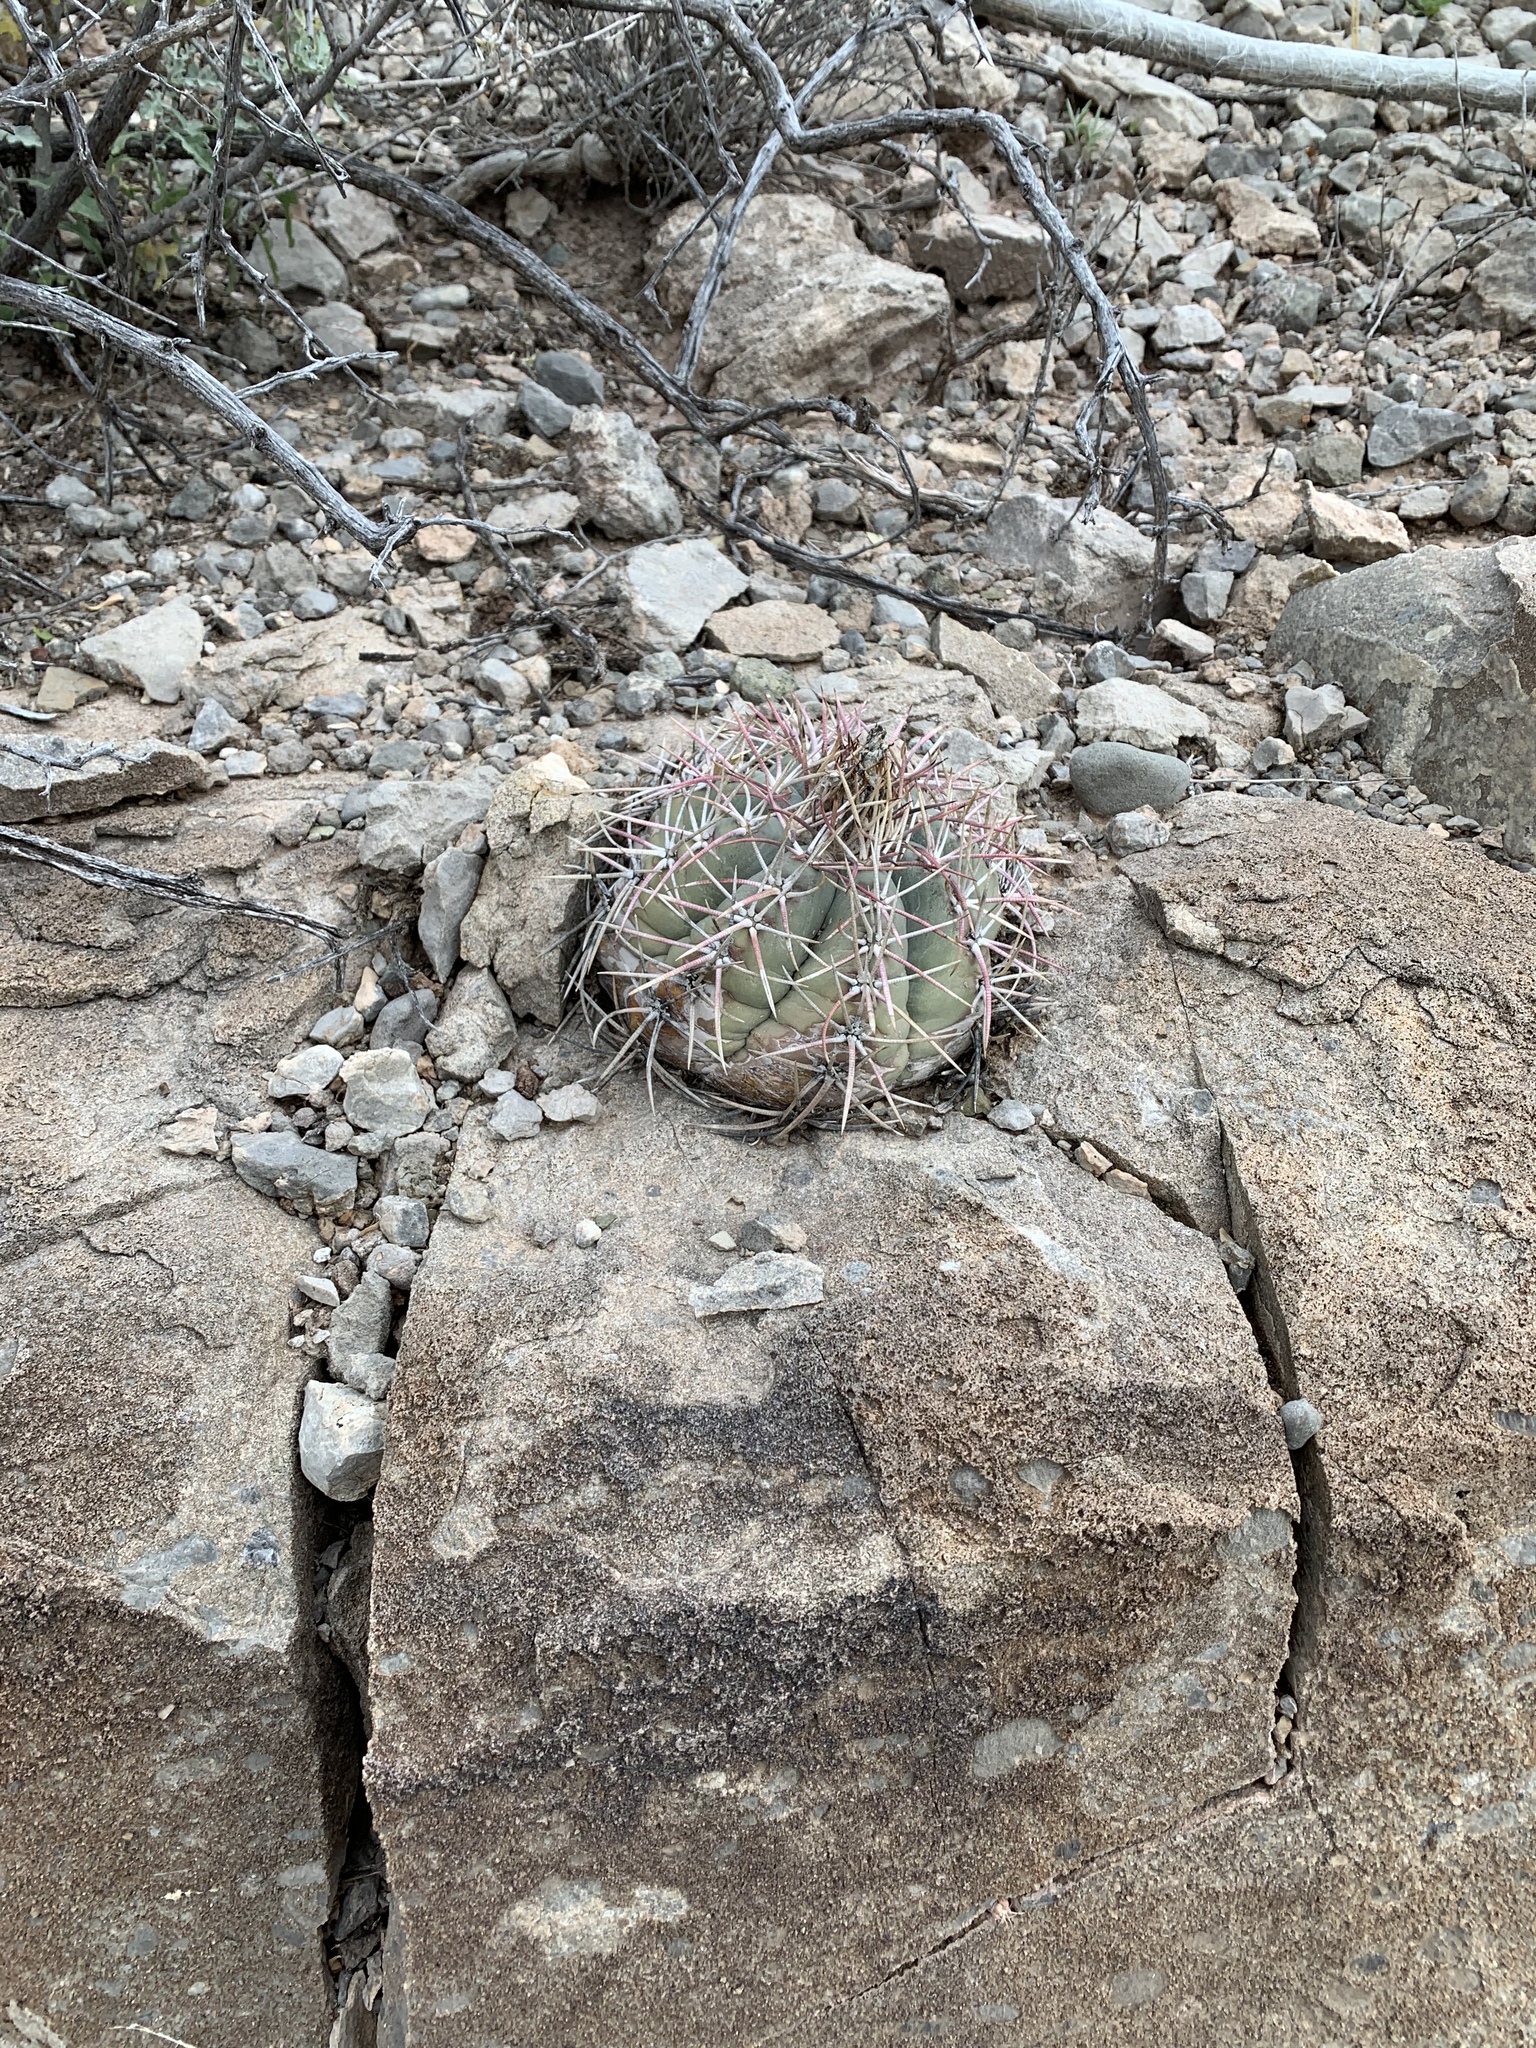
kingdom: Plantae
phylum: Tracheophyta
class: Magnoliopsida
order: Caryophyllales
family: Cactaceae
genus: Echinocactus
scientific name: Echinocactus horizonthalonius
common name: Devilshead
